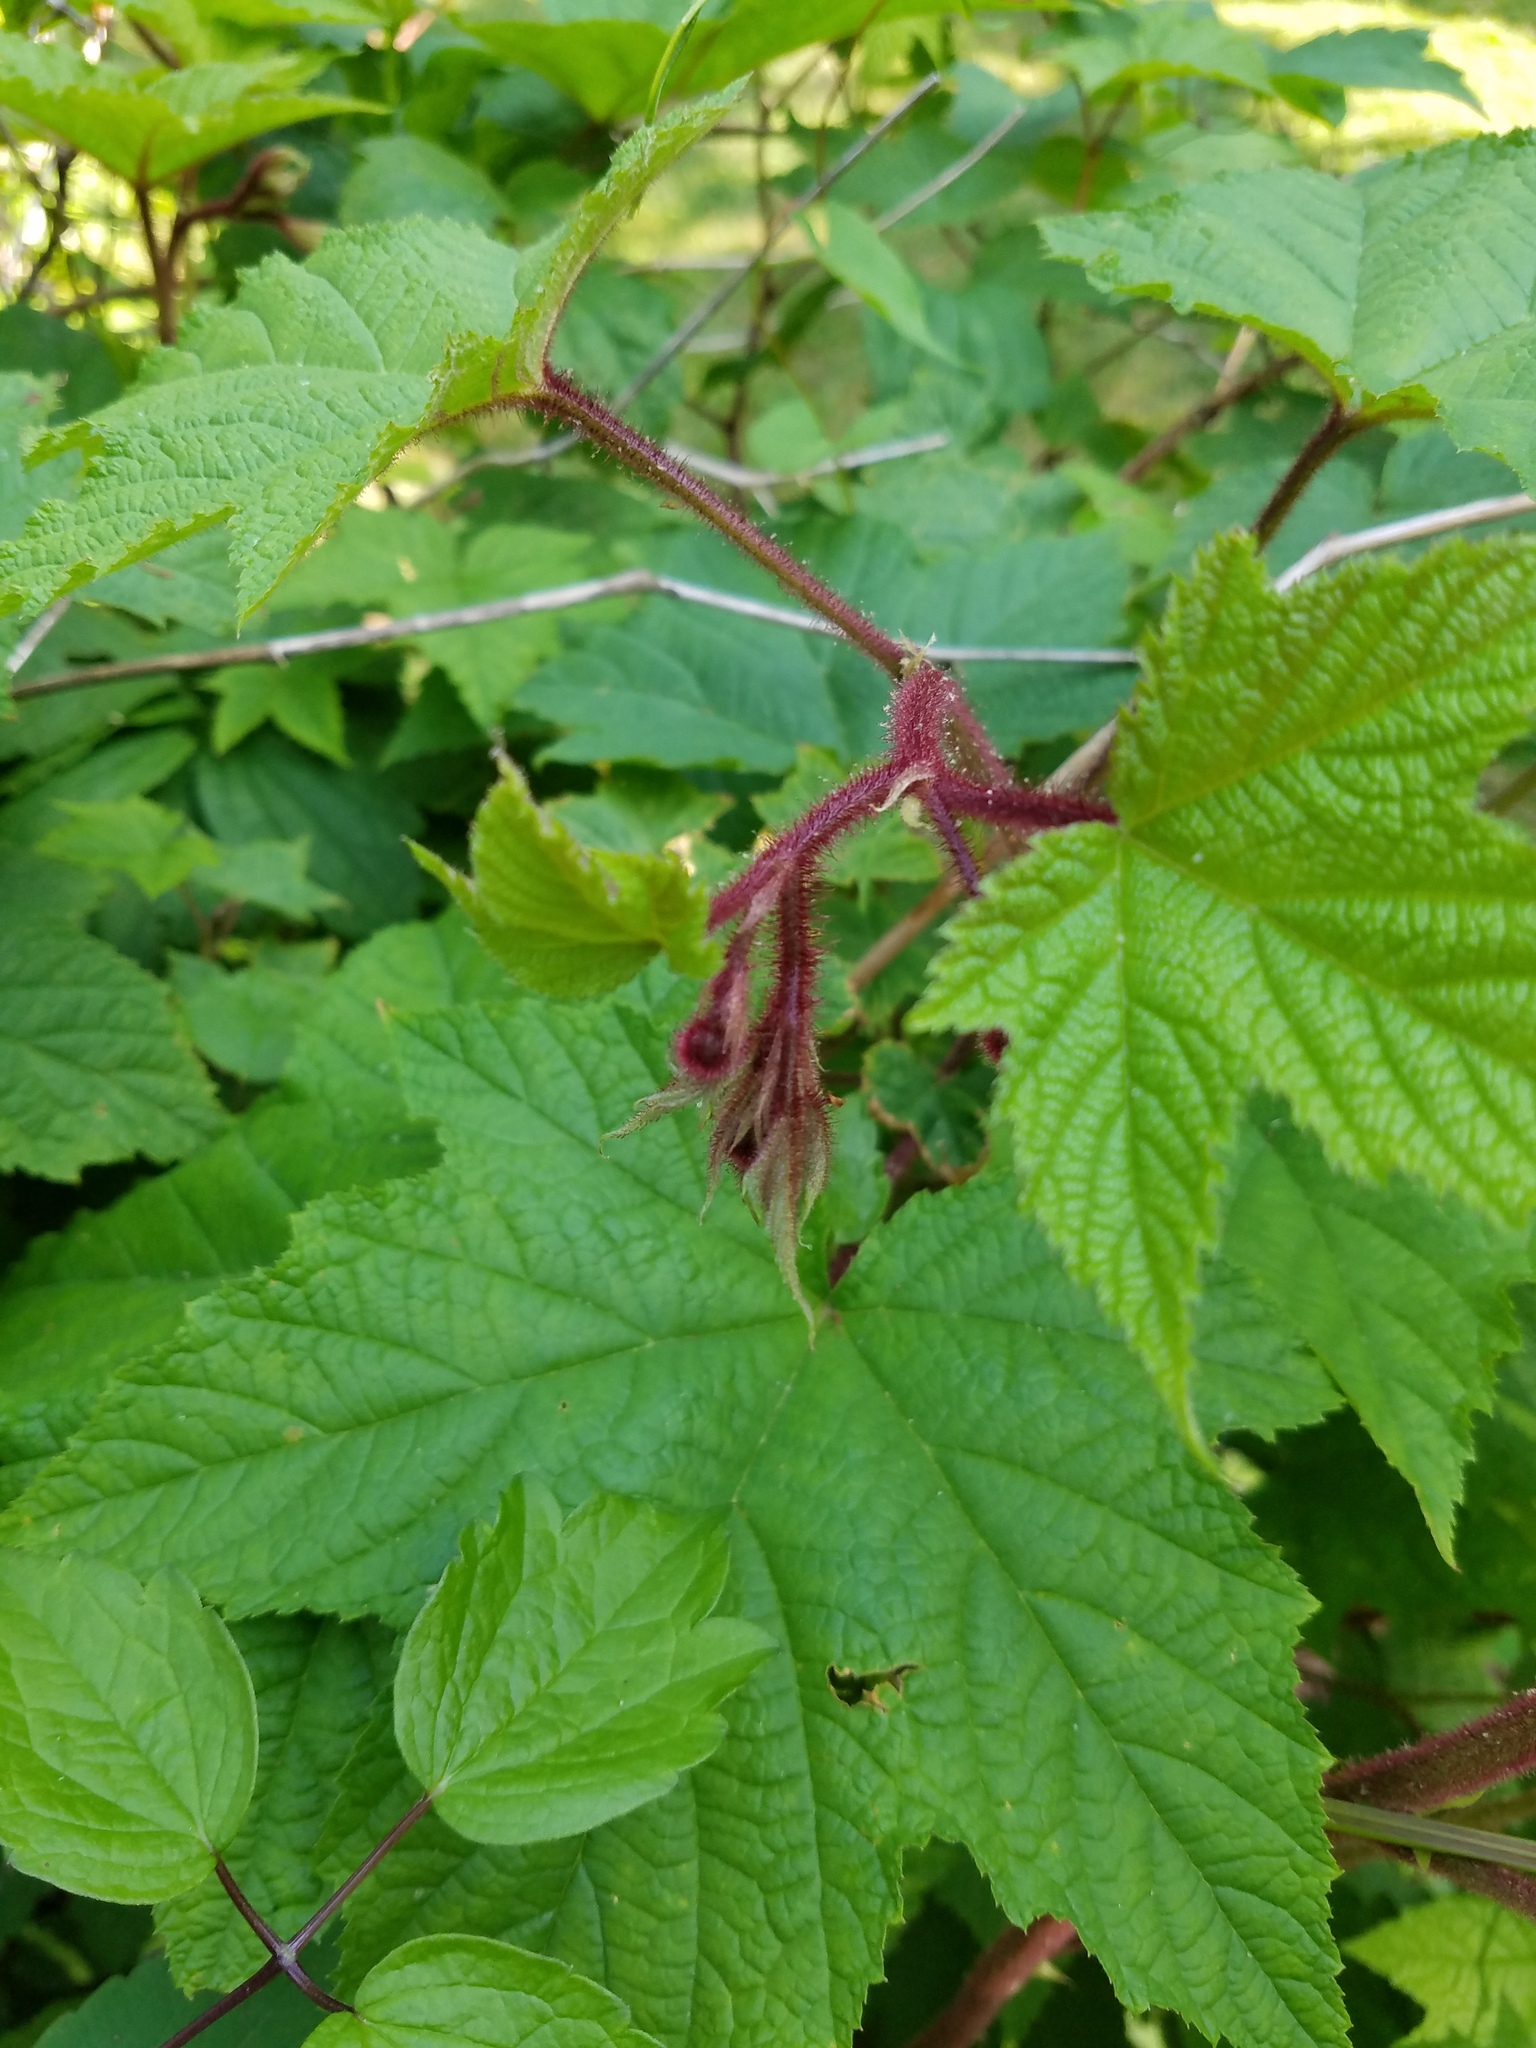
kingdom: Plantae
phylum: Tracheophyta
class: Magnoliopsida
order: Rosales
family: Rosaceae
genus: Rubus
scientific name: Rubus odoratus
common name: Purple-flowered raspberry
